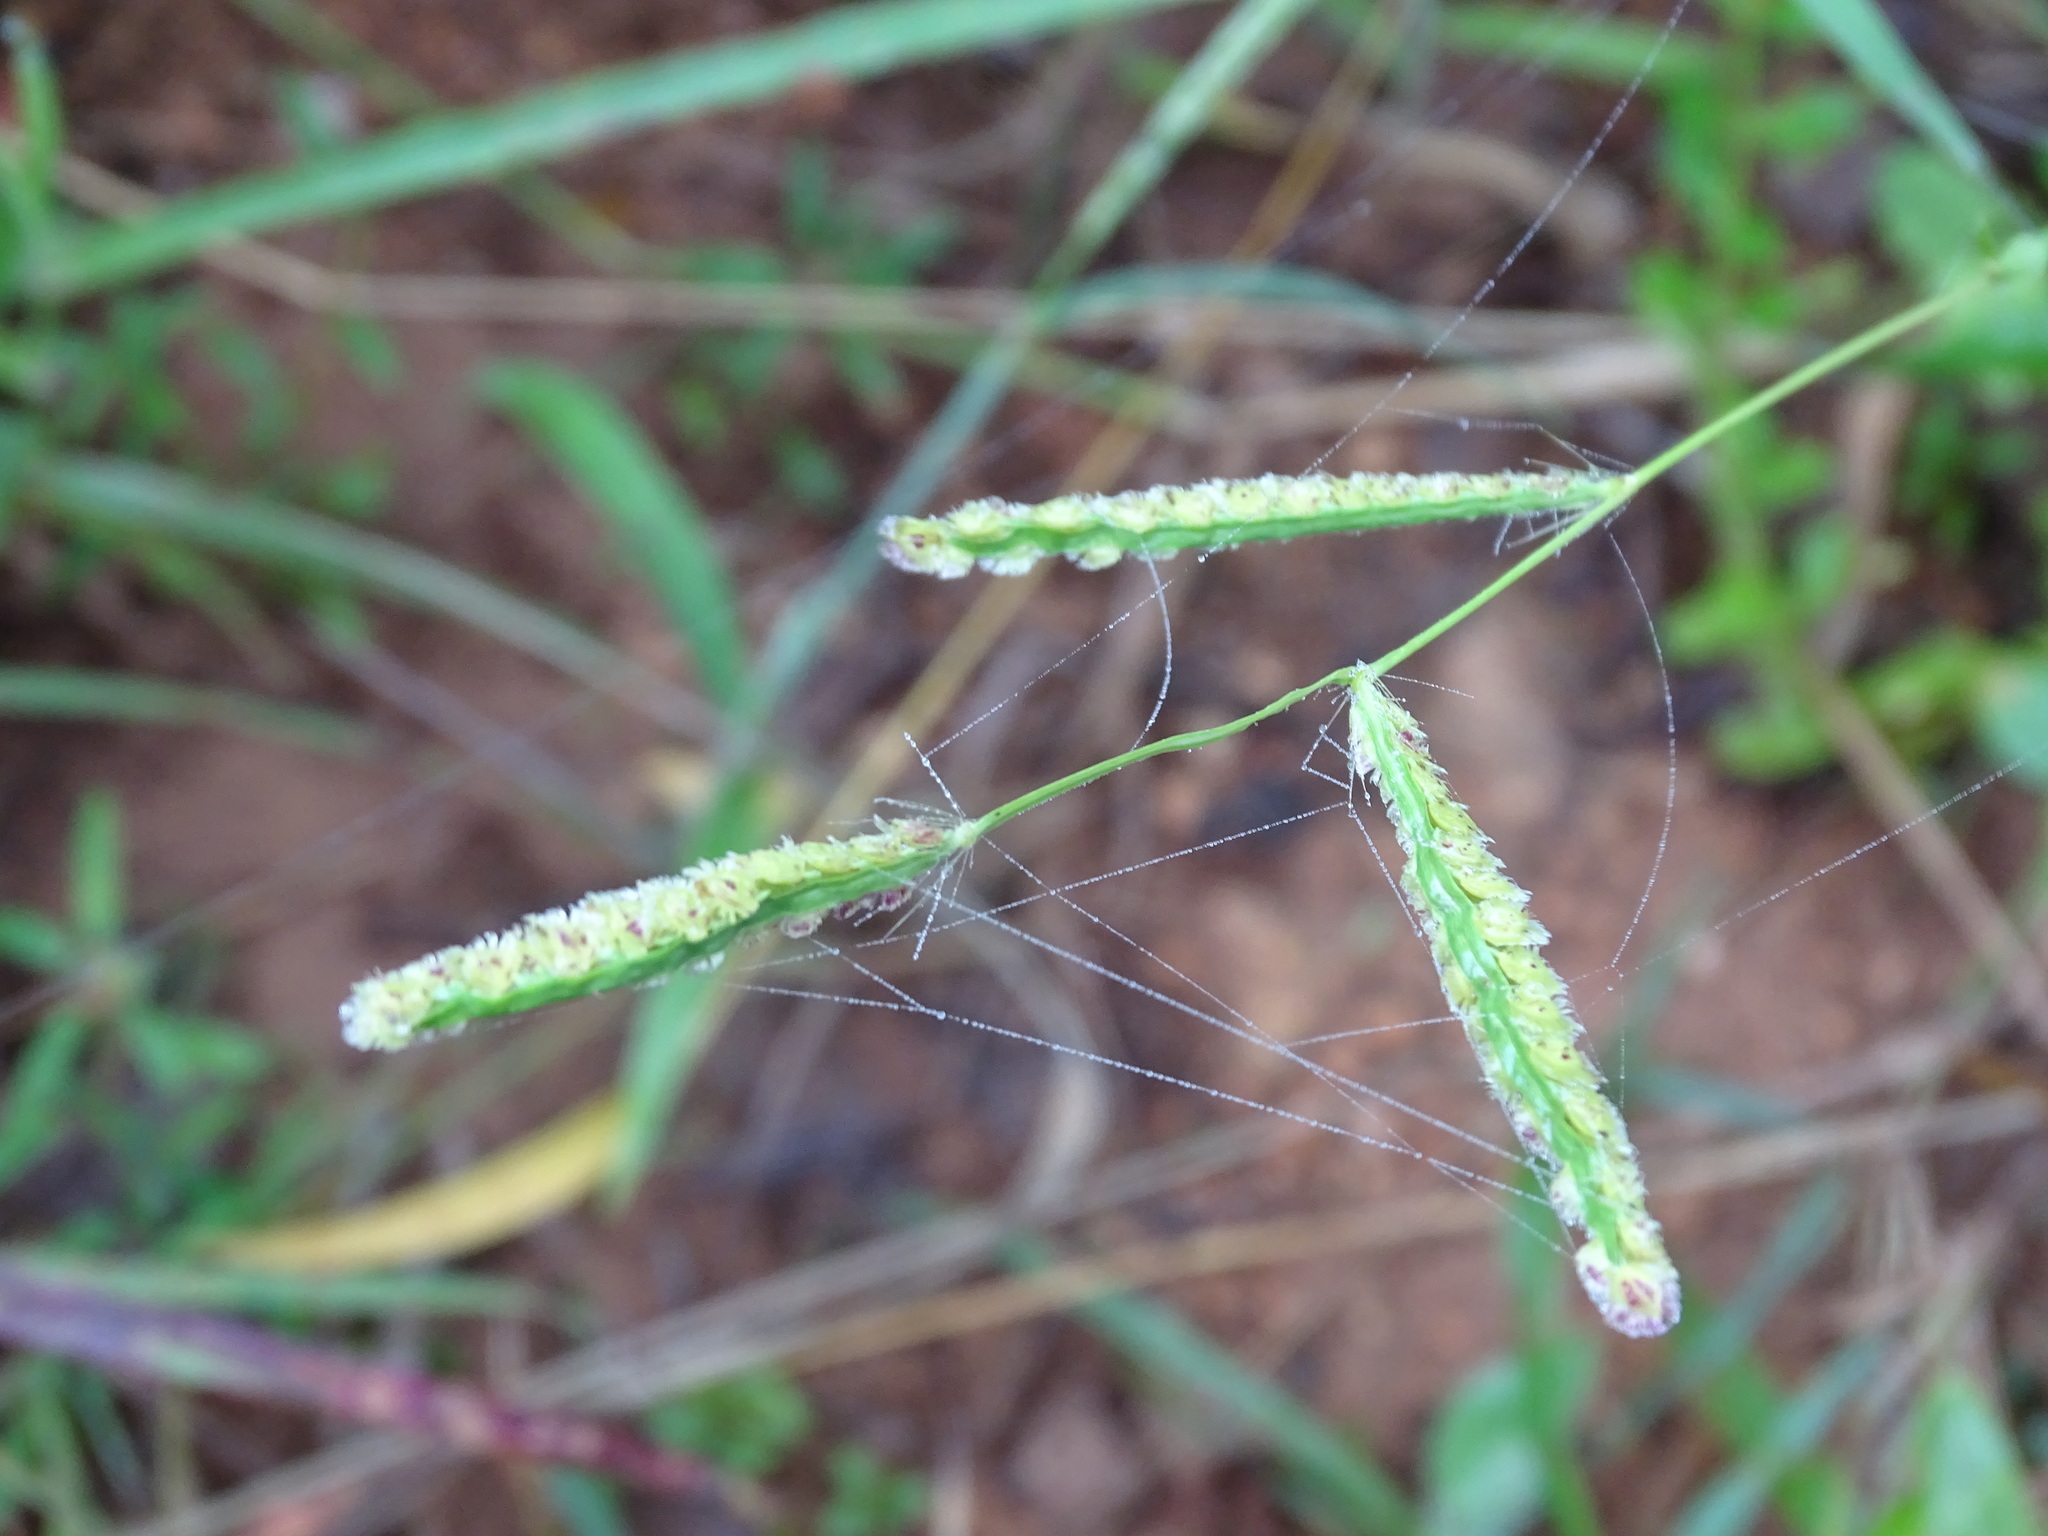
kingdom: Plantae
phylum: Tracheophyta
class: Liliopsida
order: Poales
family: Poaceae
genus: Paspalum
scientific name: Paspalum fimbriatum
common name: Panama crowngrass
